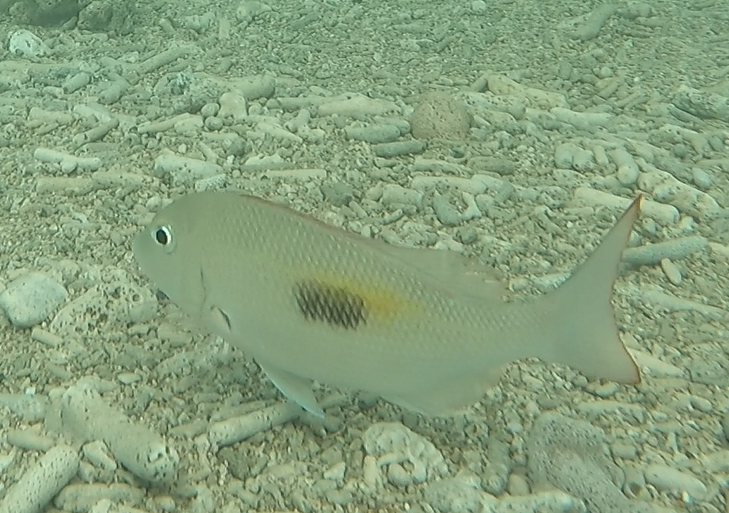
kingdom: Animalia
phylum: Chordata
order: Perciformes
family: Lethrinidae
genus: Lethrinus
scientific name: Lethrinus harak
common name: Blackspot emperor
